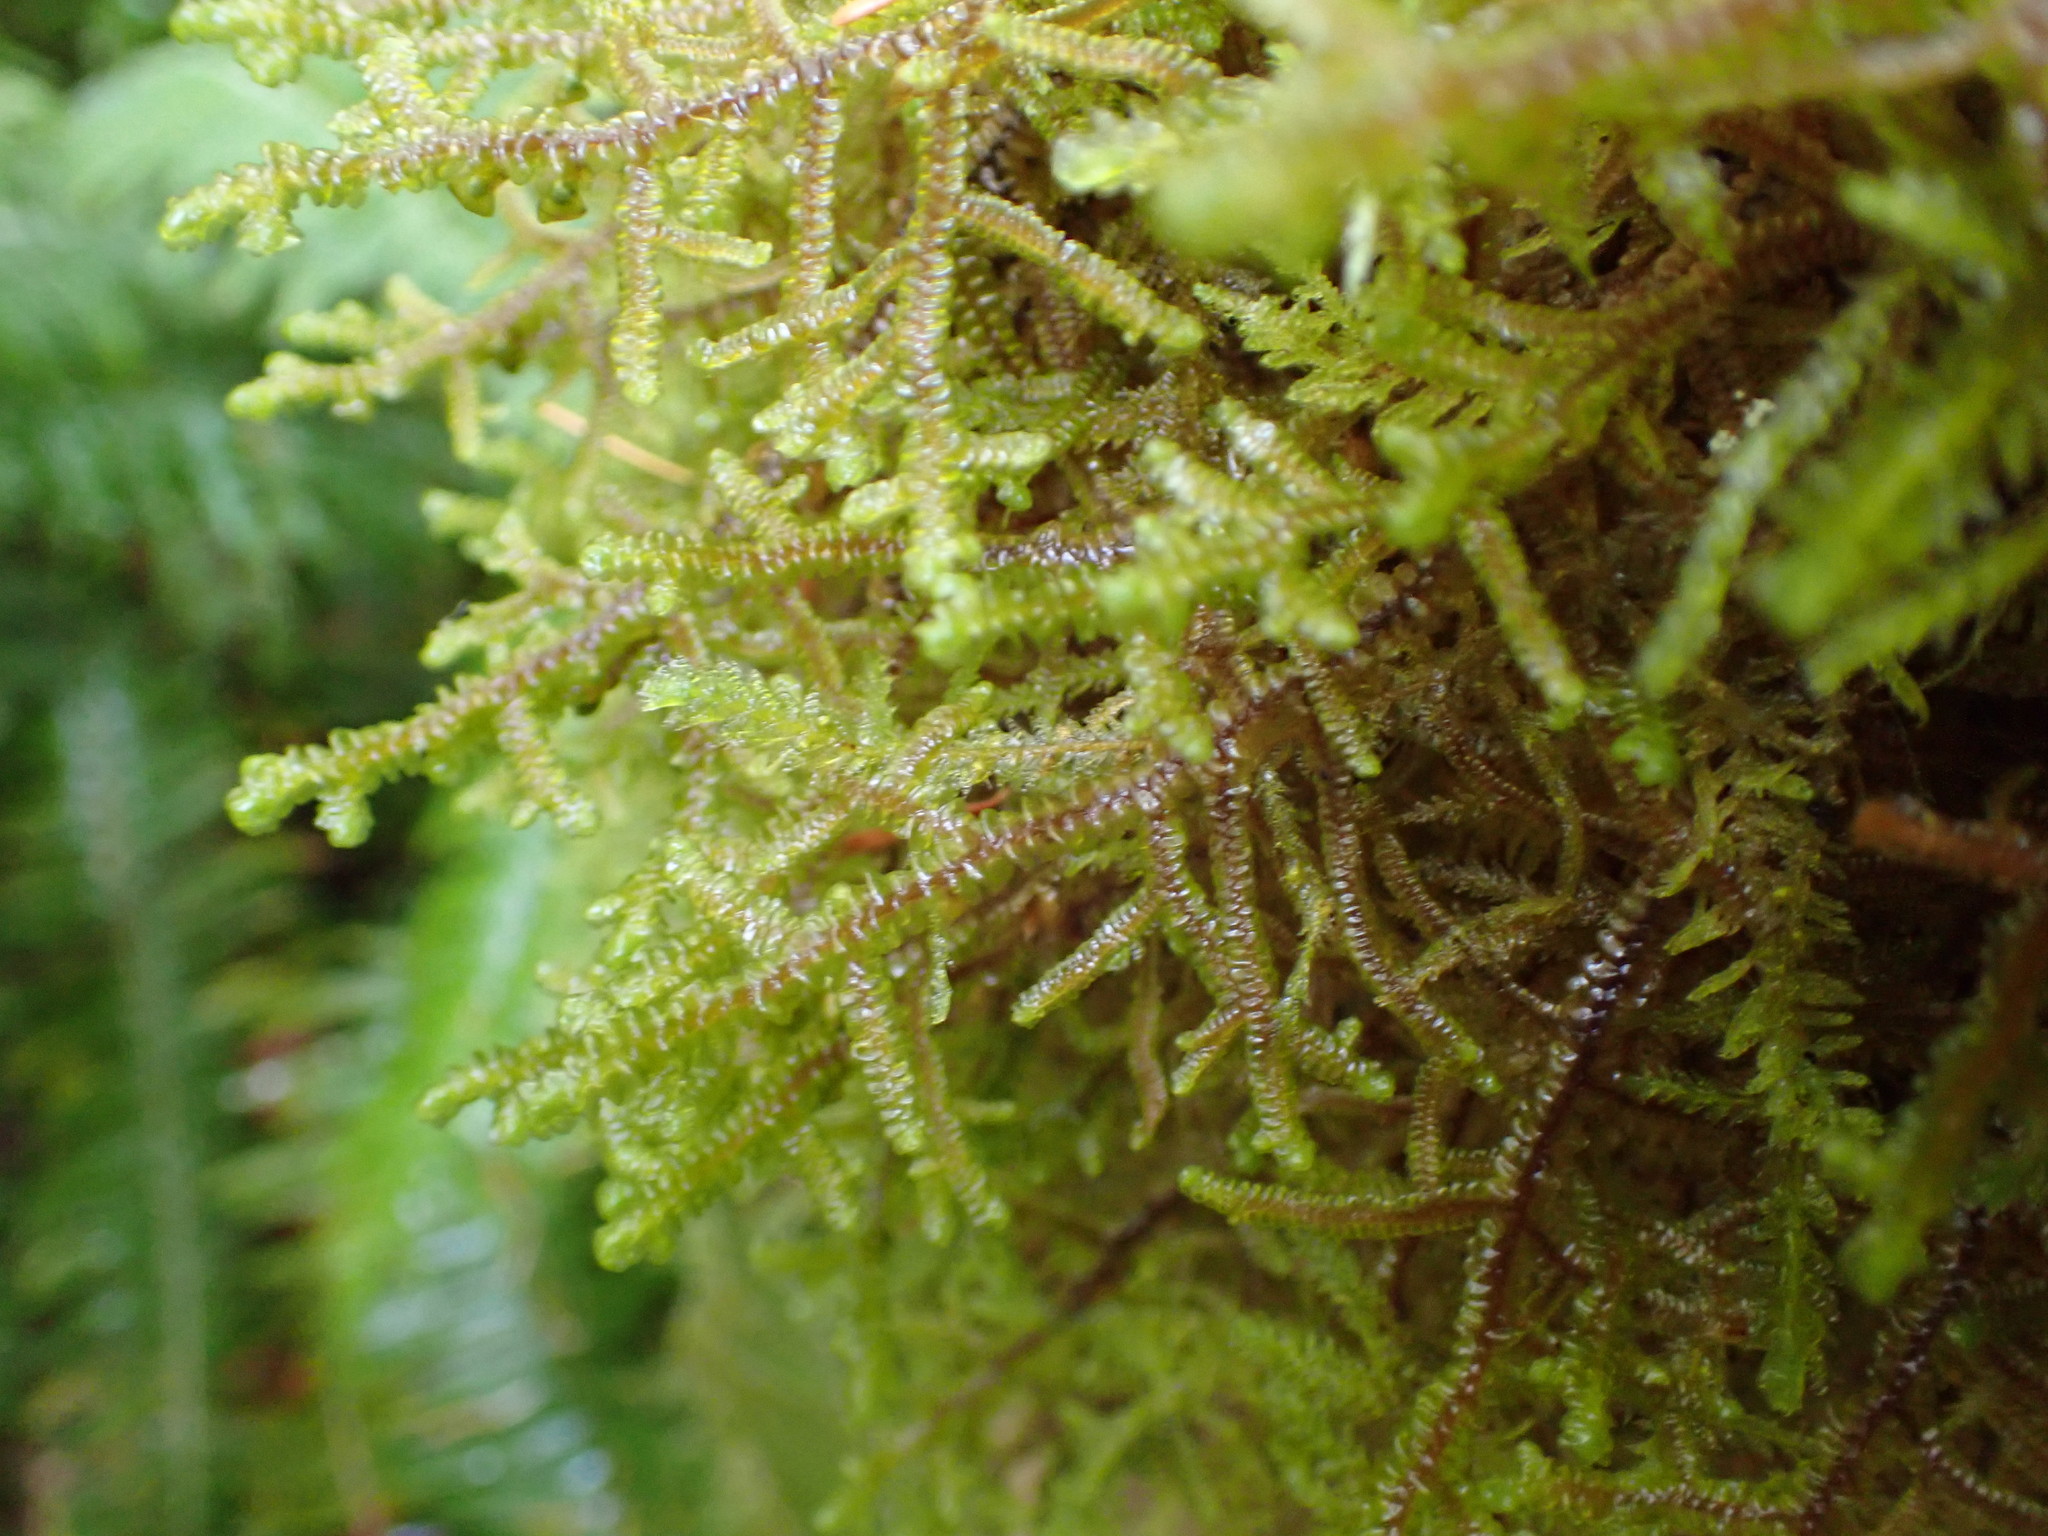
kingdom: Plantae
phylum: Marchantiophyta
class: Jungermanniopsida
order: Porellales
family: Porellaceae
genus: Porella
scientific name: Porella navicularis
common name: Tree ruffle liverwort
